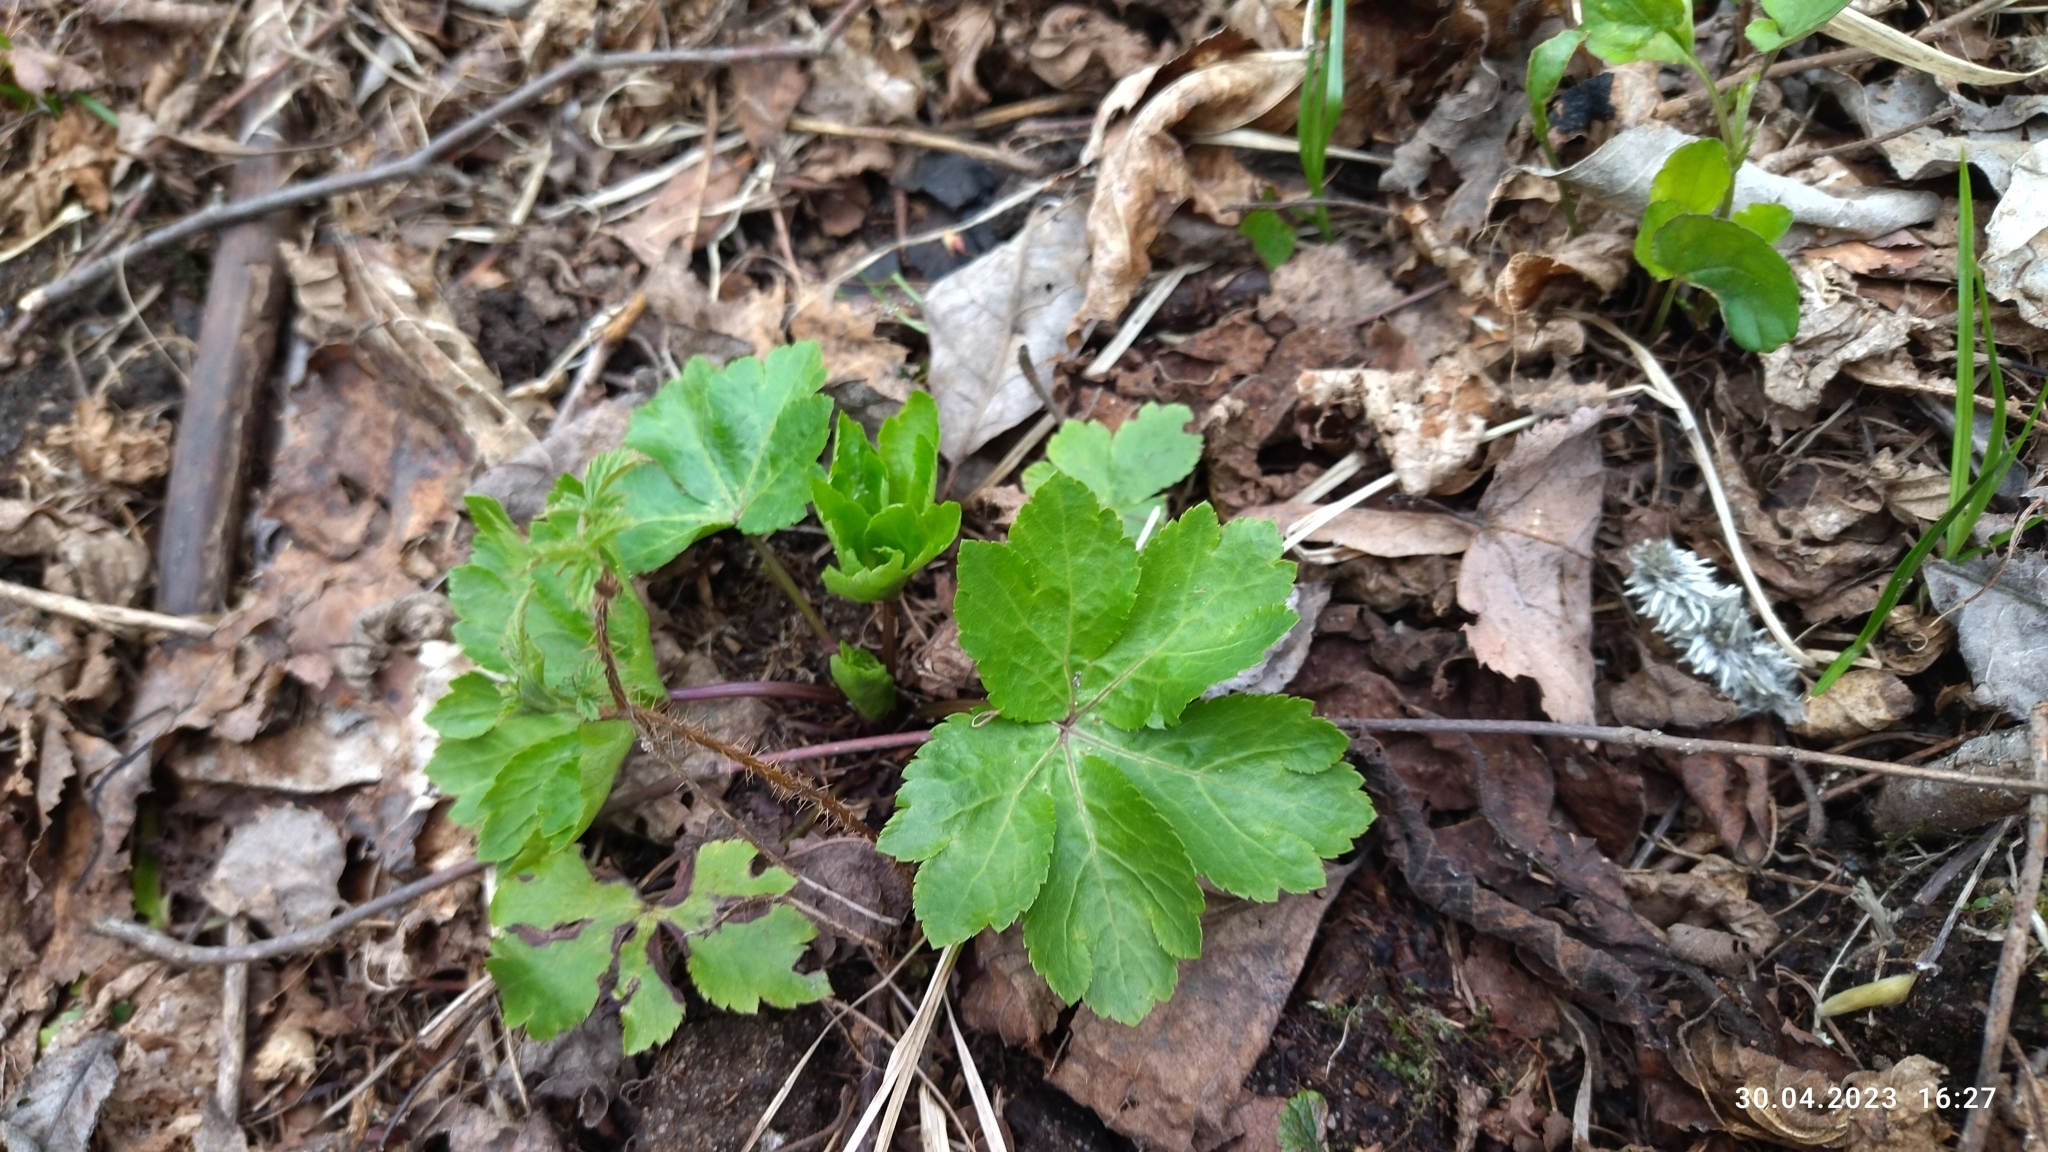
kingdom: Plantae
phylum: Tracheophyta
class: Magnoliopsida
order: Apiales
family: Apiaceae
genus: Sanicula
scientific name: Sanicula europaea
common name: Sanicle
